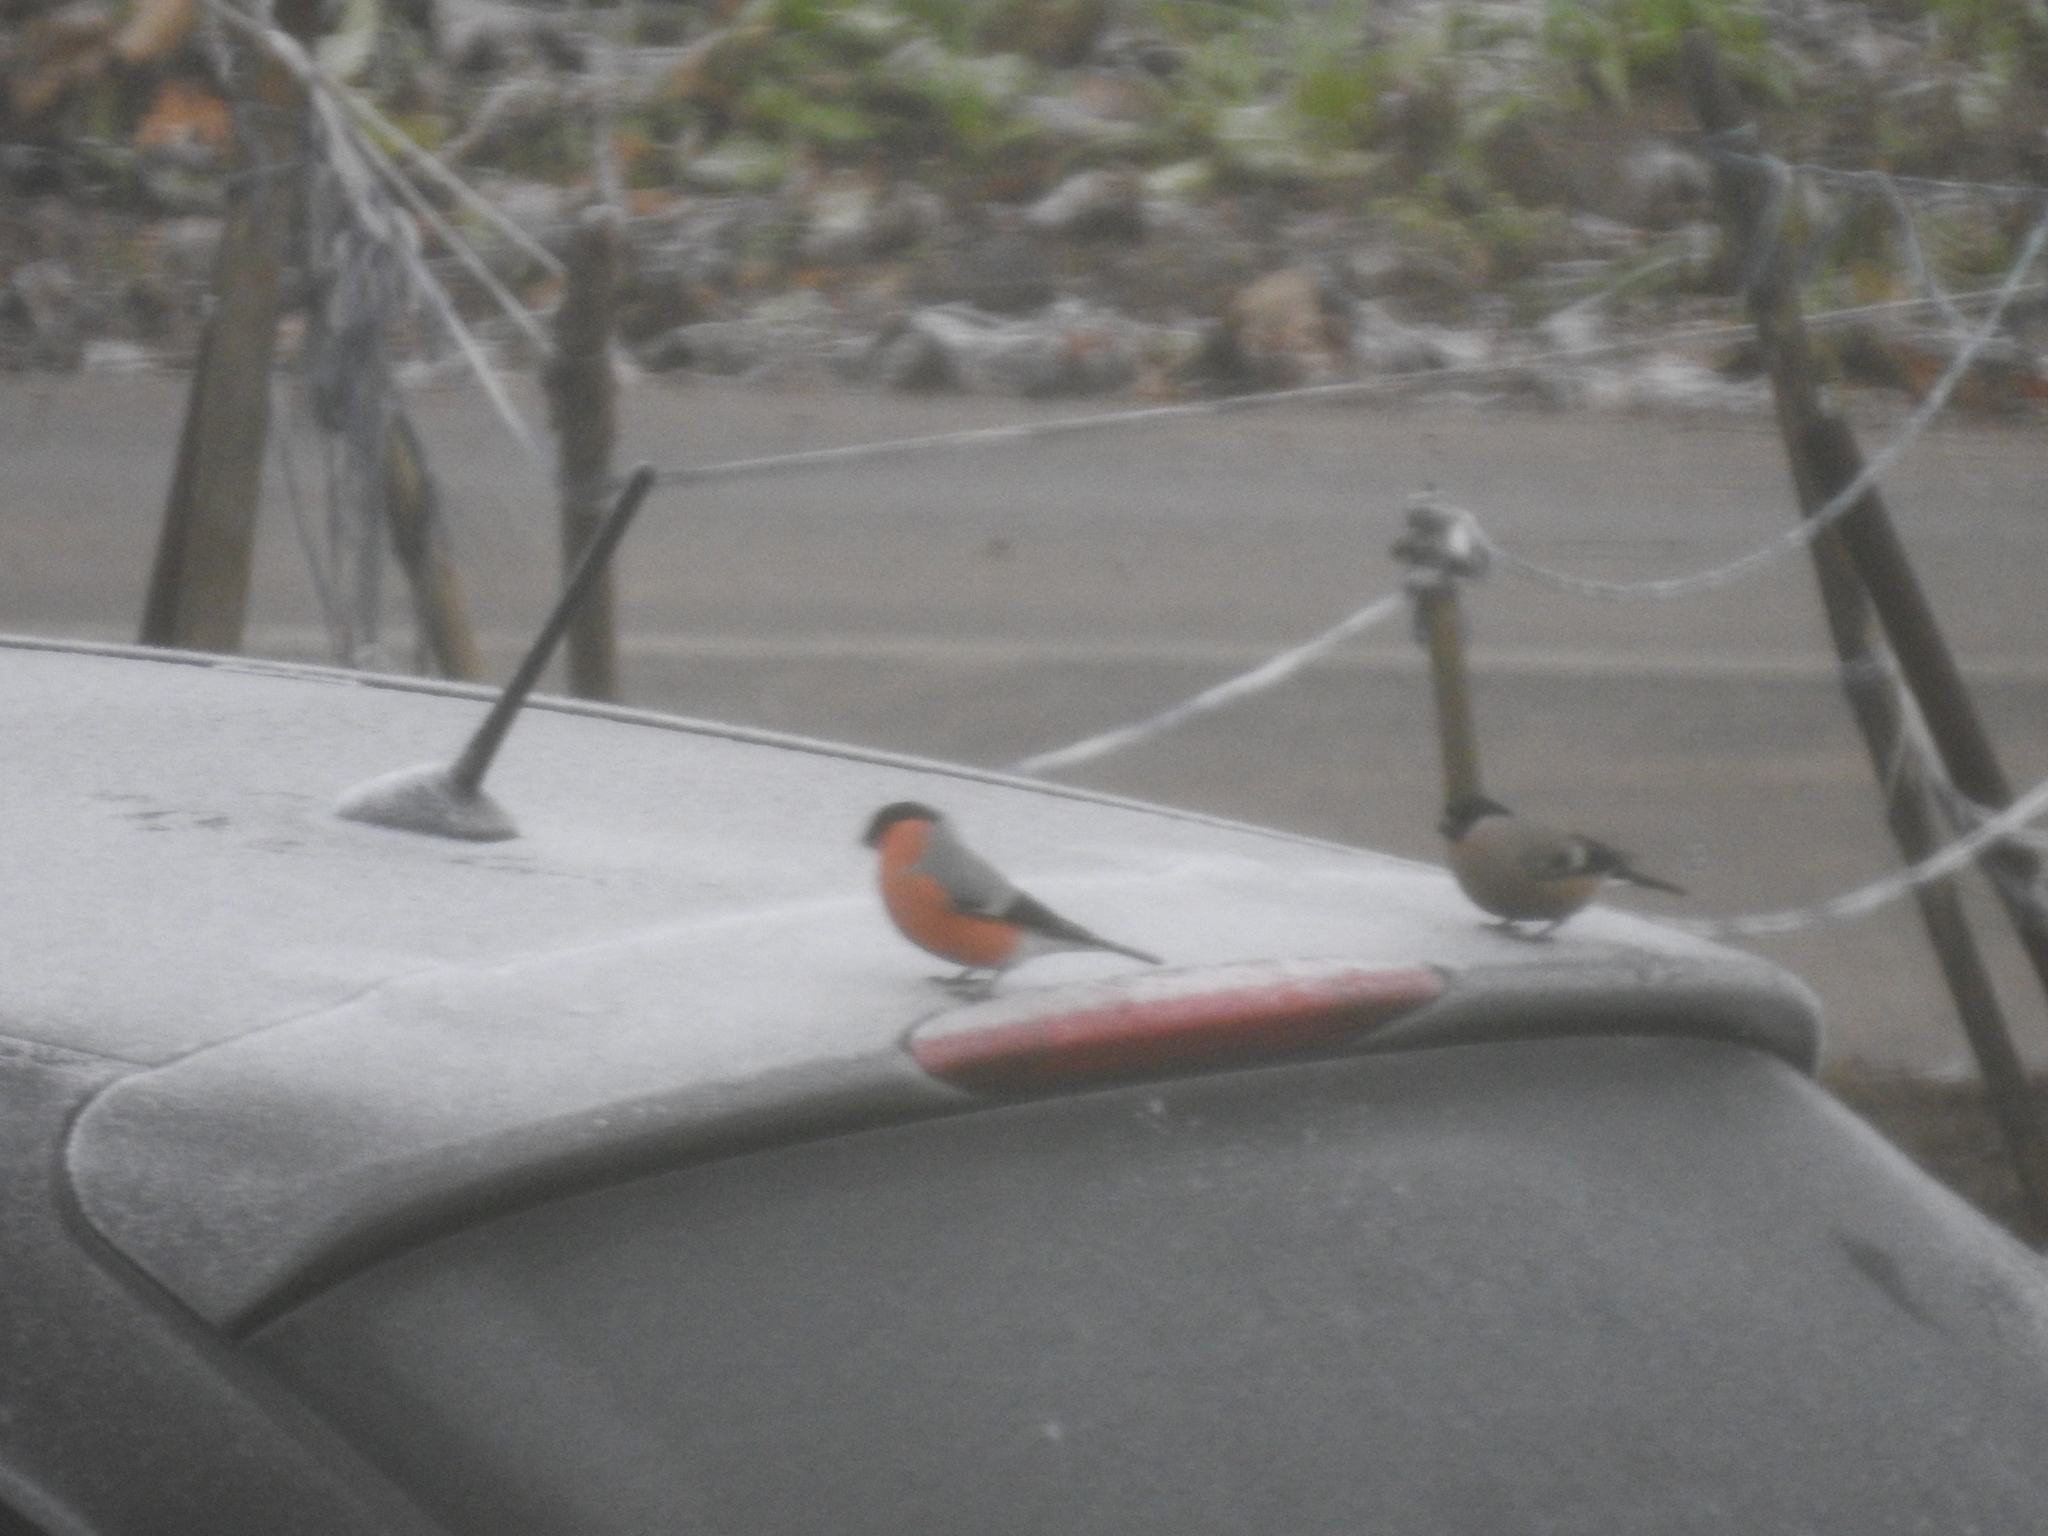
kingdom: Animalia
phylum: Chordata
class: Aves
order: Passeriformes
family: Fringillidae
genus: Pyrrhula
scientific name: Pyrrhula pyrrhula
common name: Eurasian bullfinch
